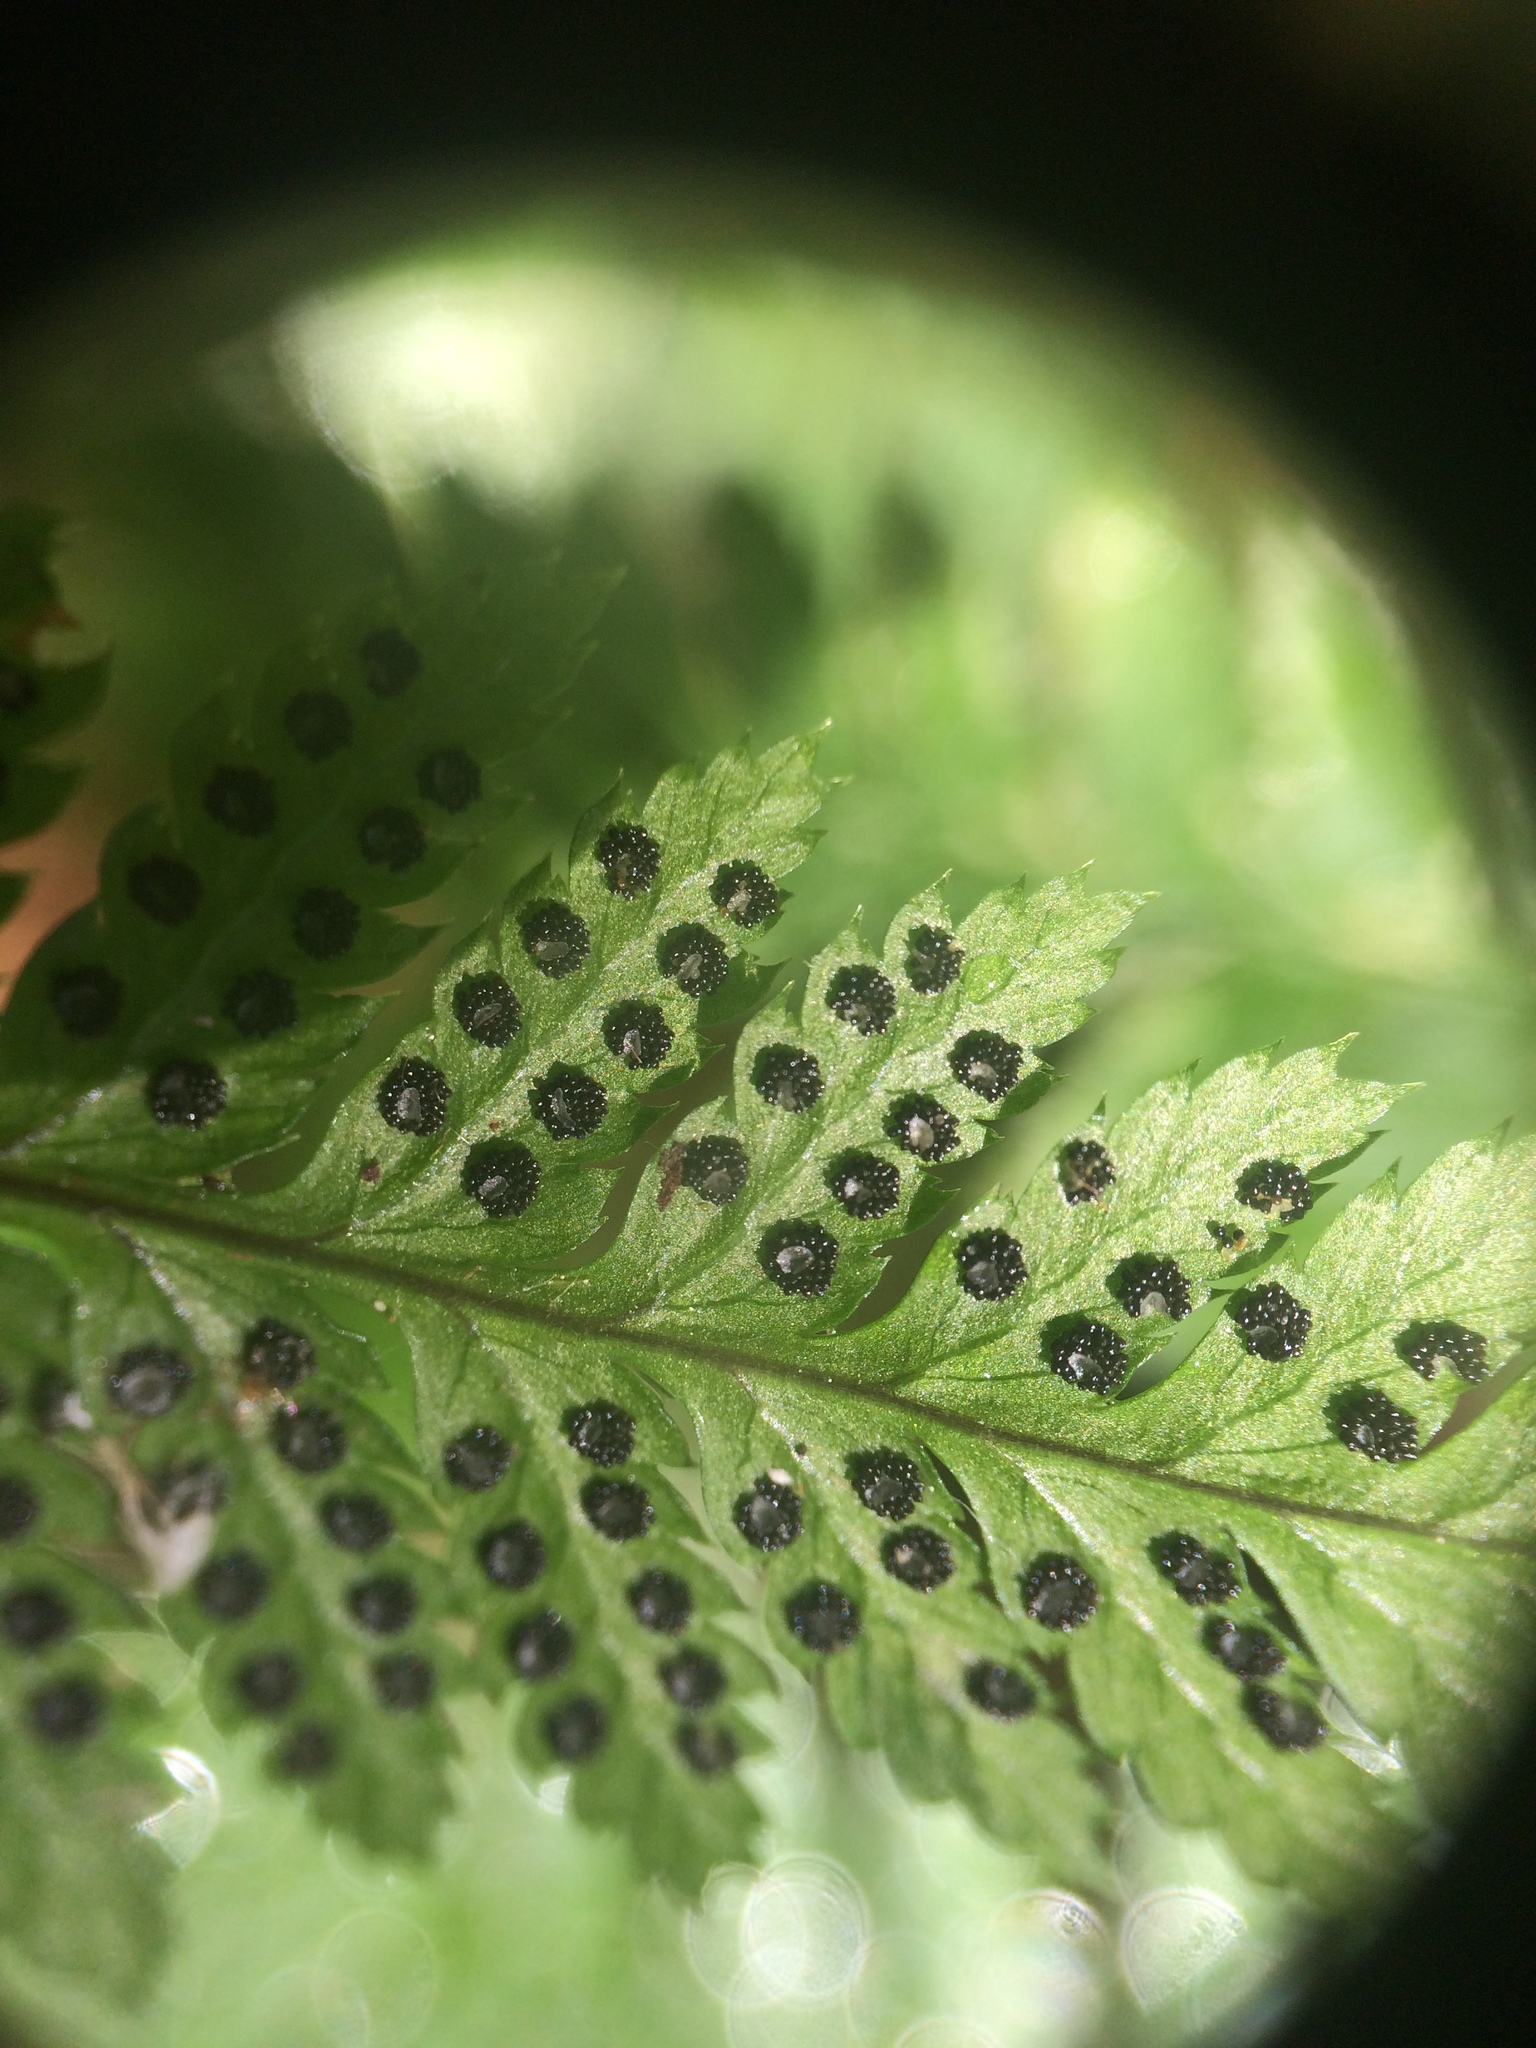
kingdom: Plantae
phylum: Tracheophyta
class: Polypodiopsida
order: Polypodiales
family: Dryopteridaceae
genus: Dryopteris
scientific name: Dryopteris carthusiana
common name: Narrow buckler-fern
